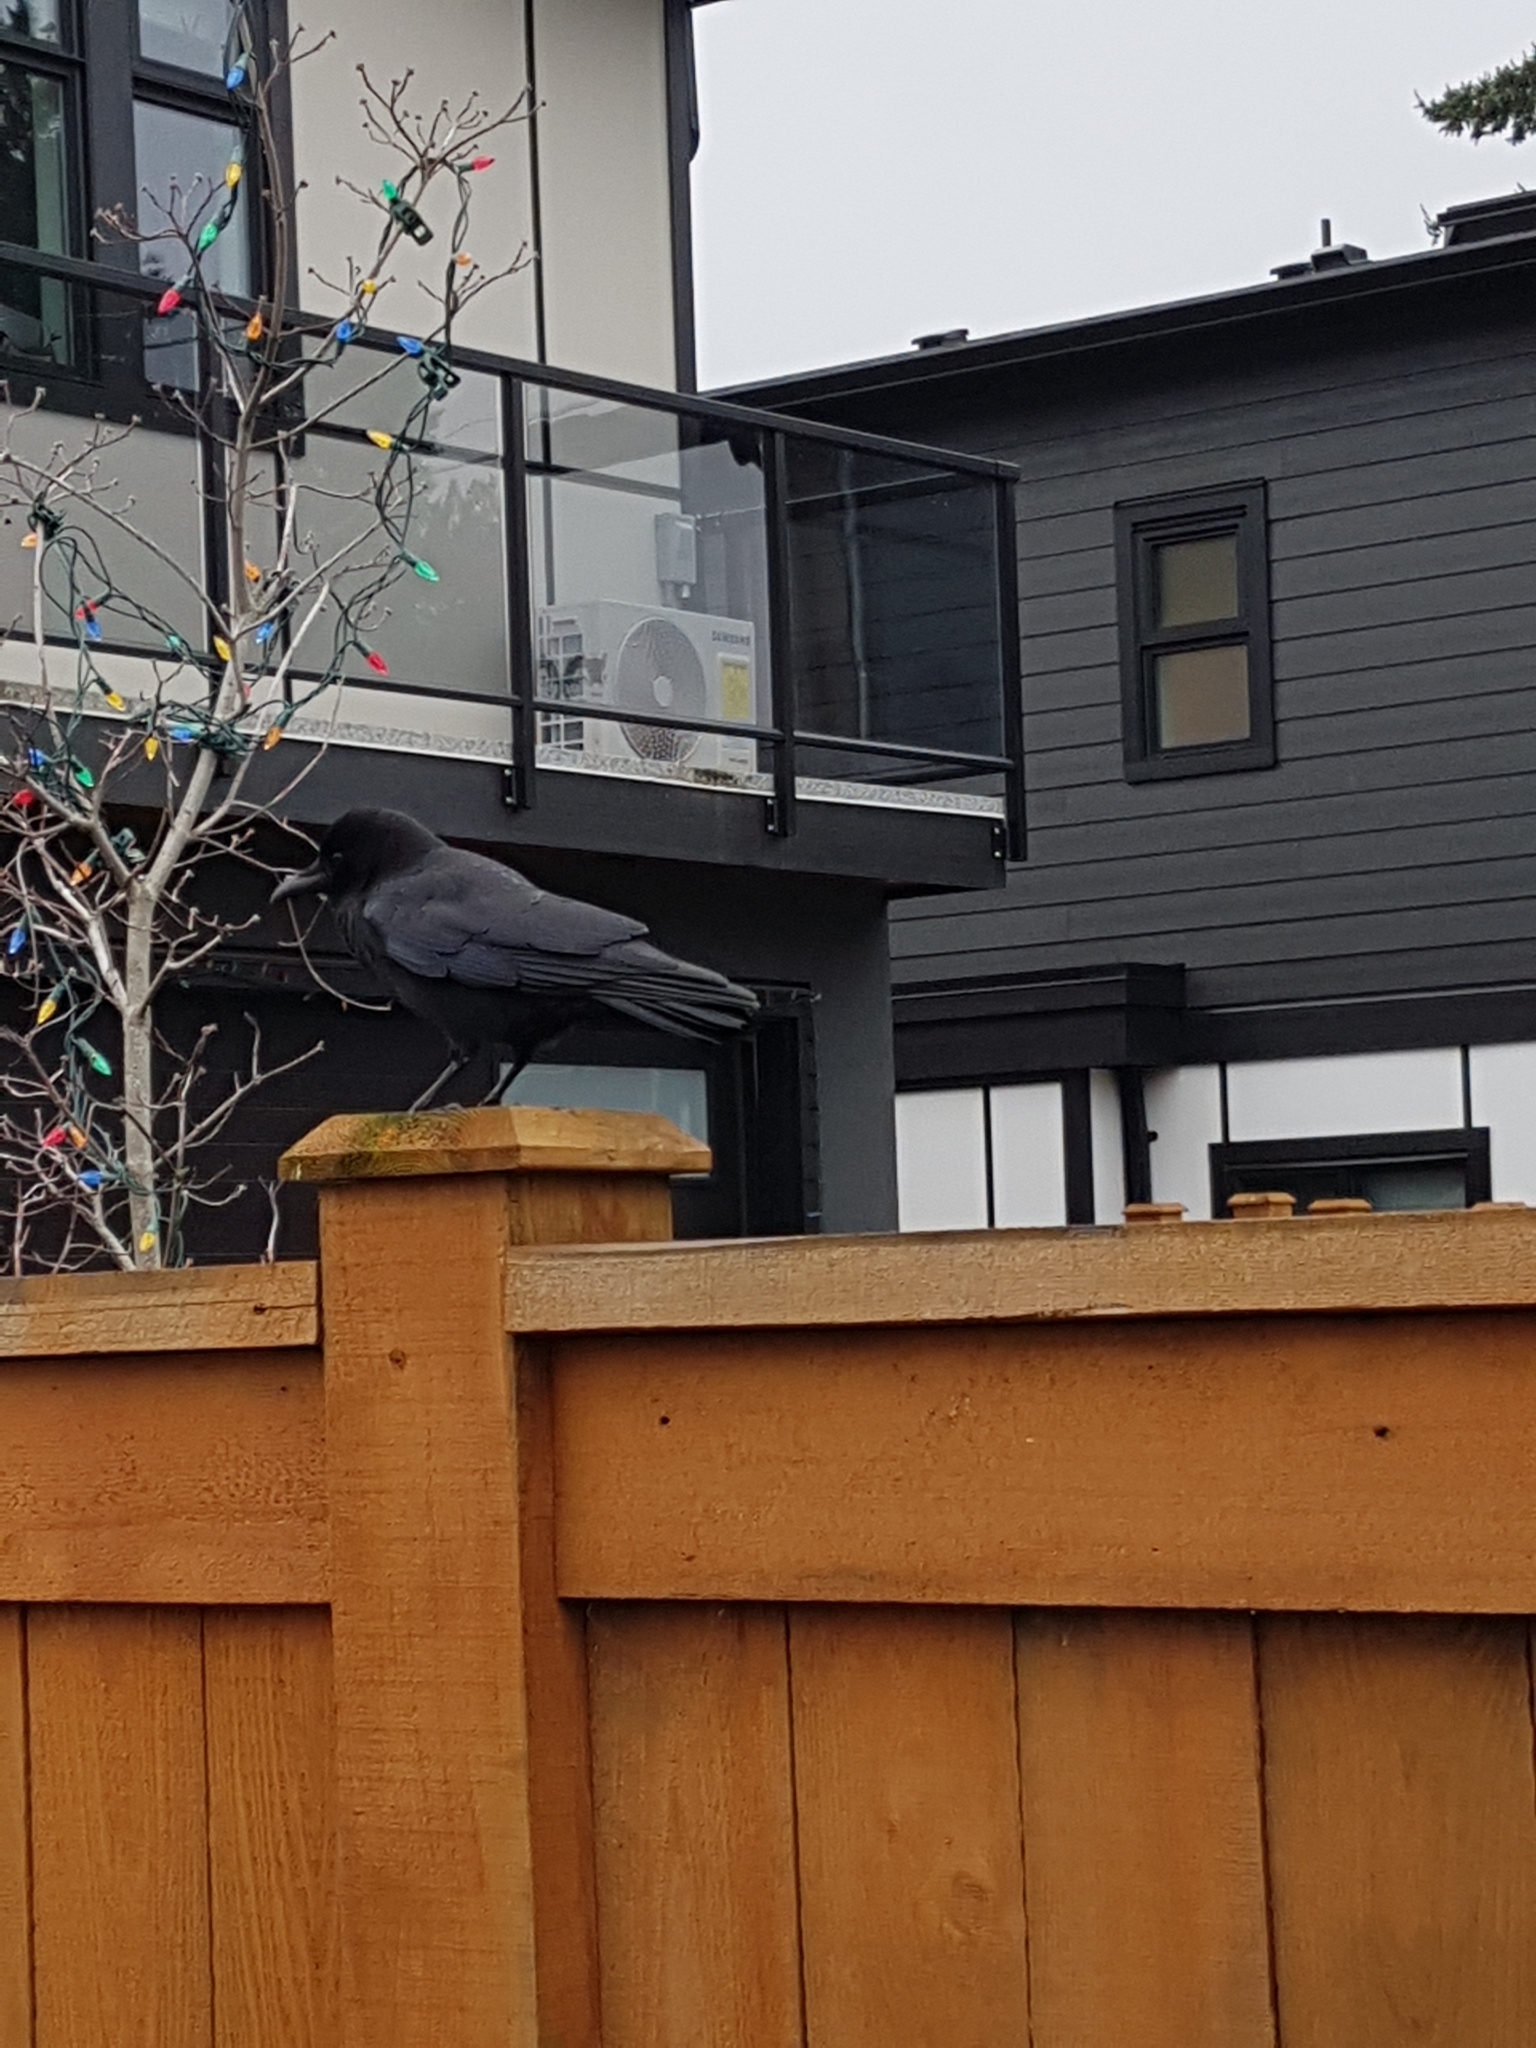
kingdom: Animalia
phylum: Chordata
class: Aves
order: Passeriformes
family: Corvidae
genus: Corvus
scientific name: Corvus brachyrhynchos
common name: American crow
